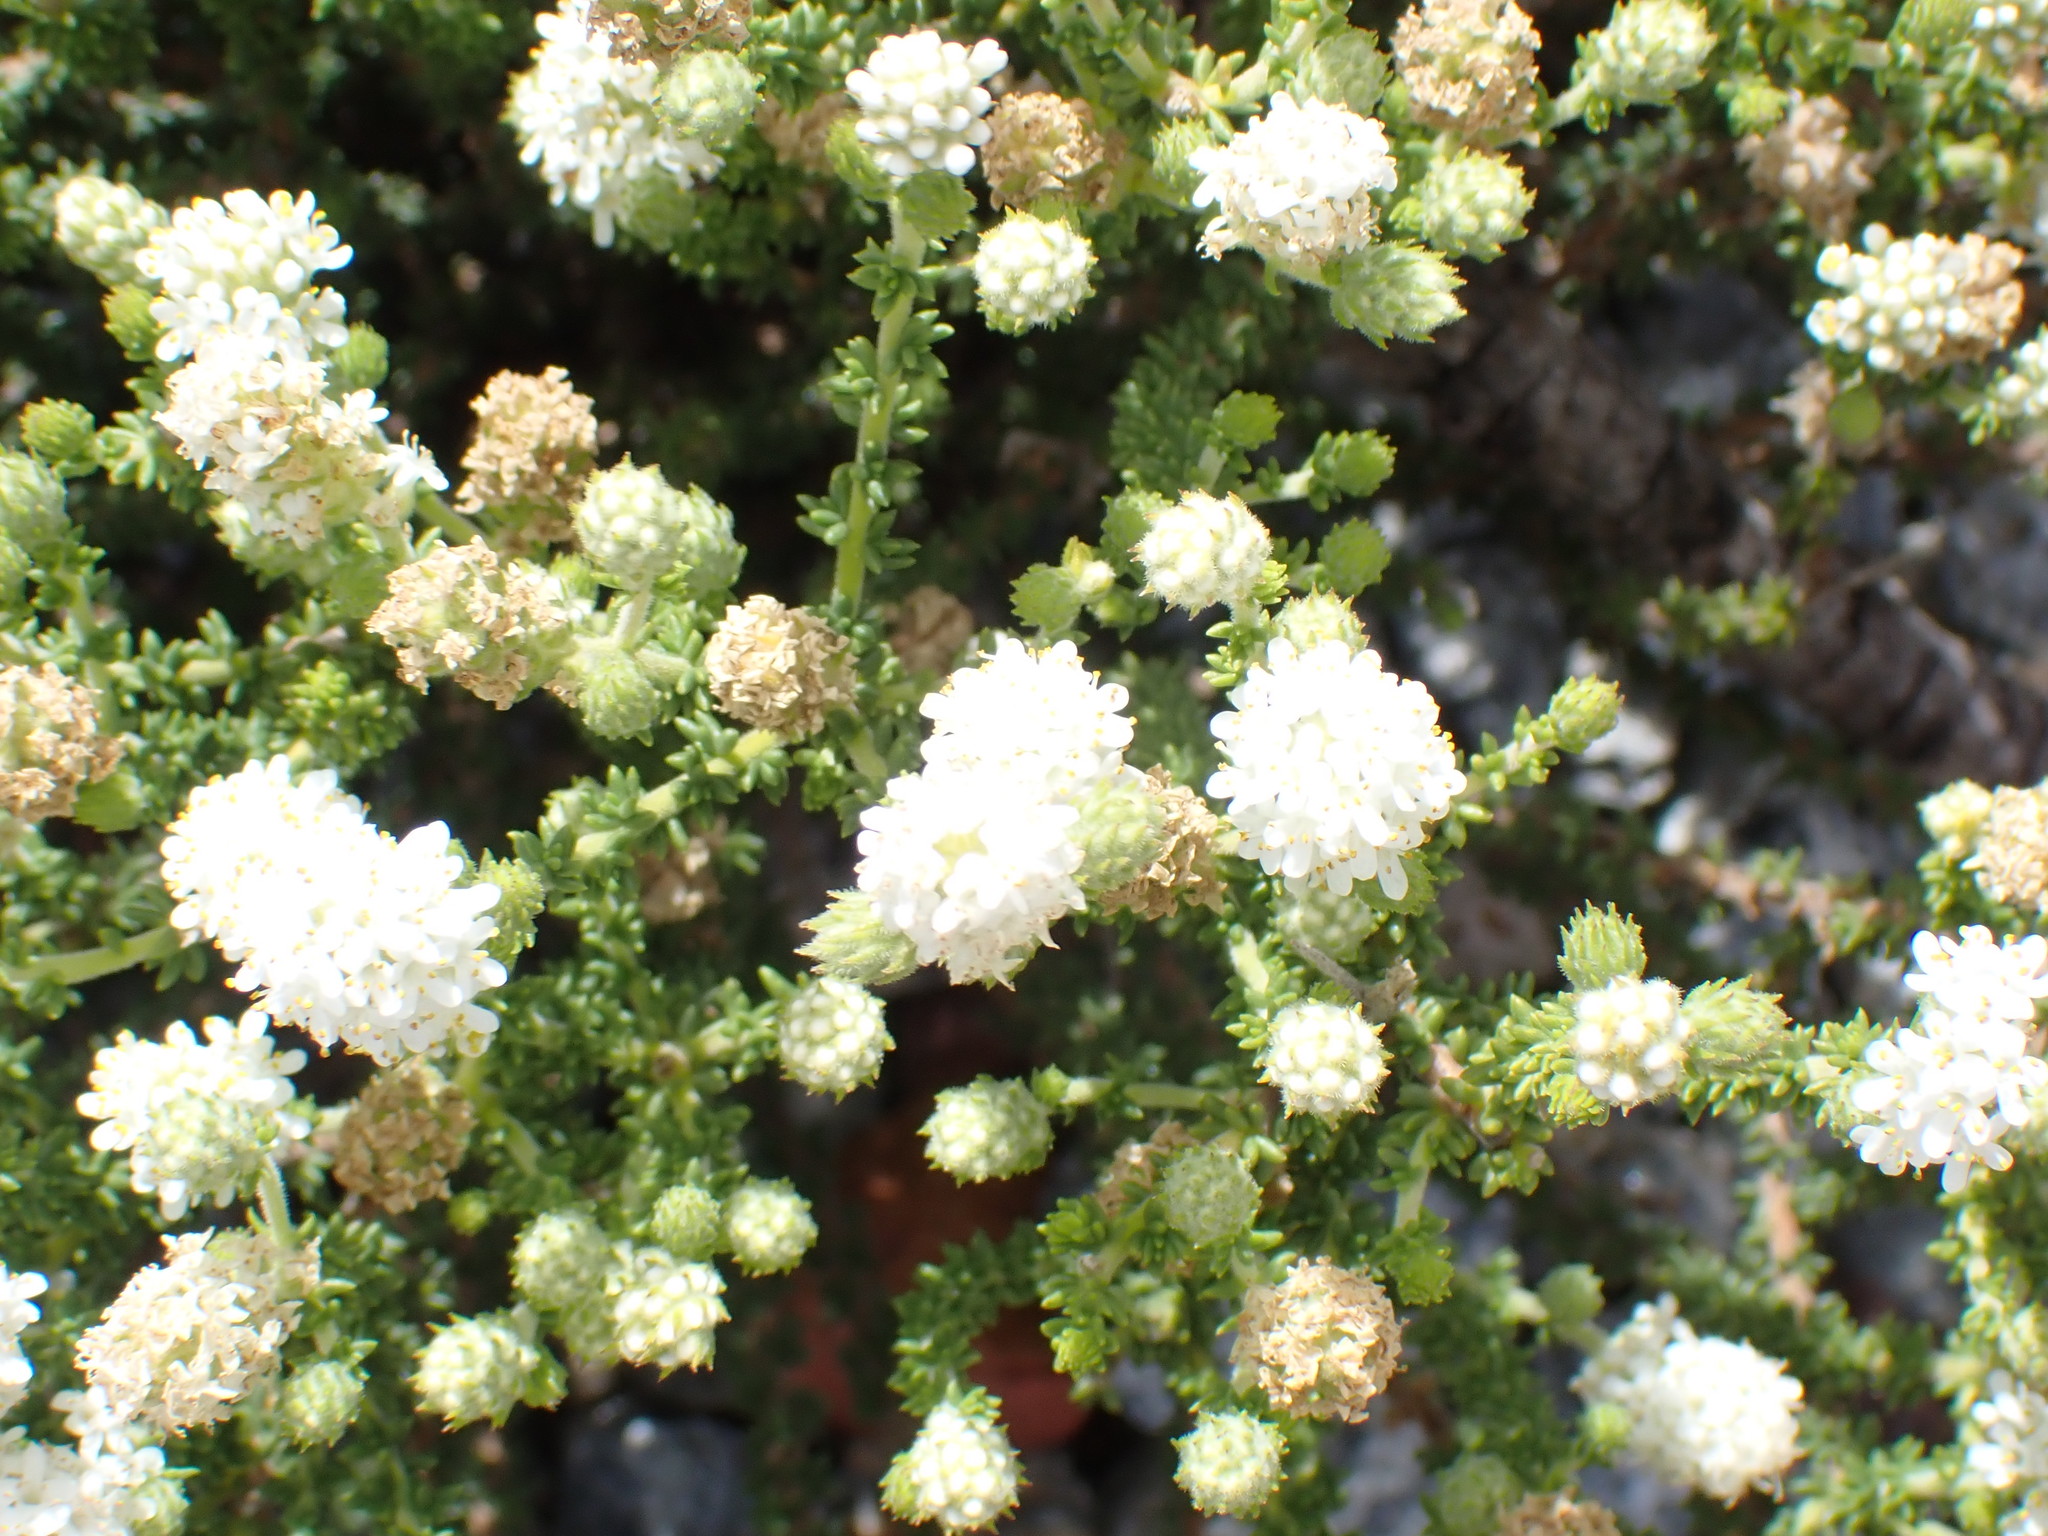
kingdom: Plantae
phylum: Tracheophyta
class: Magnoliopsida
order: Lamiales
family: Scrophulariaceae
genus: Selago
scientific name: Selago karooica
